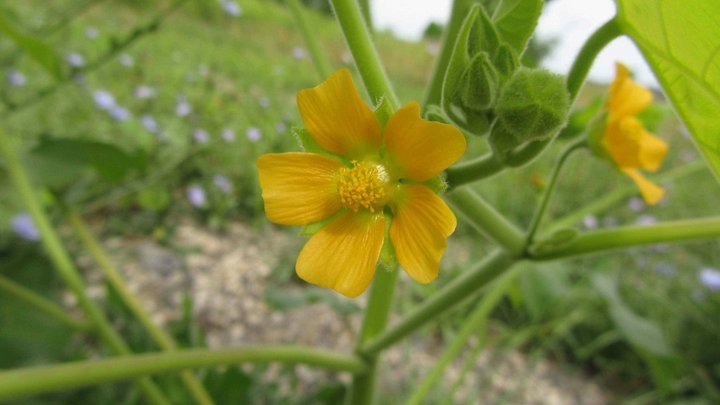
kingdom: Plantae
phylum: Tracheophyta
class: Magnoliopsida
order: Malvales
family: Malvaceae
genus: Abutilon
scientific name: Abutilon theophrasti
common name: Velvetleaf
